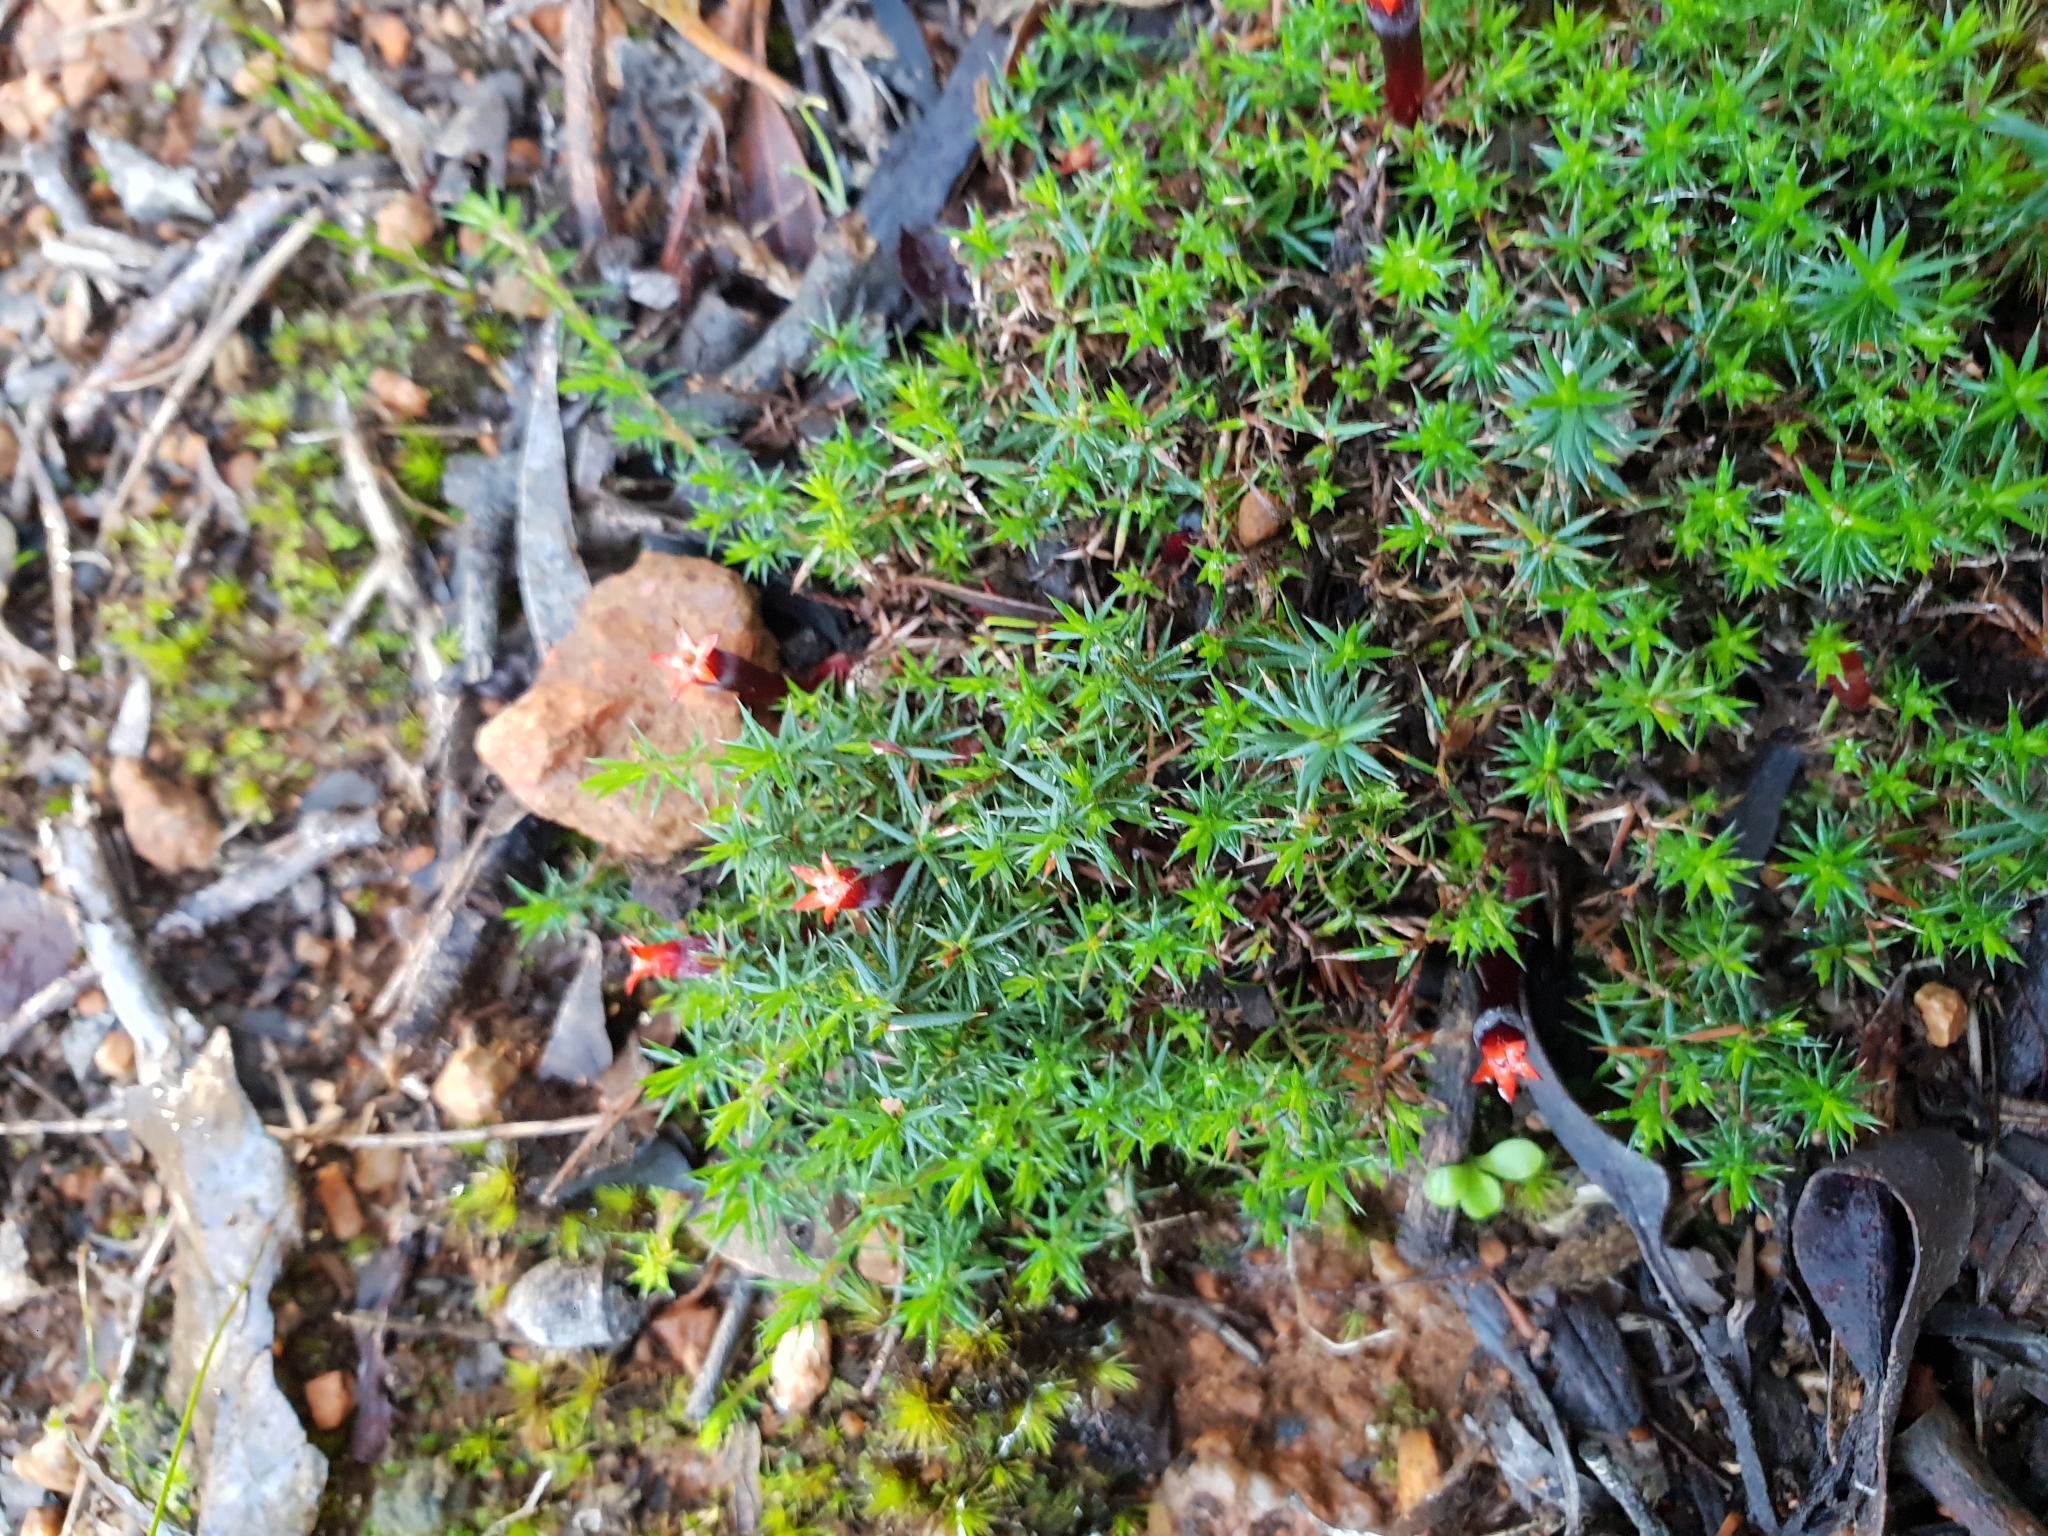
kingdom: Plantae
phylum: Tracheophyta
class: Magnoliopsida
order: Ericales
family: Ericaceae
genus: Styphelia
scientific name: Styphelia discolor
